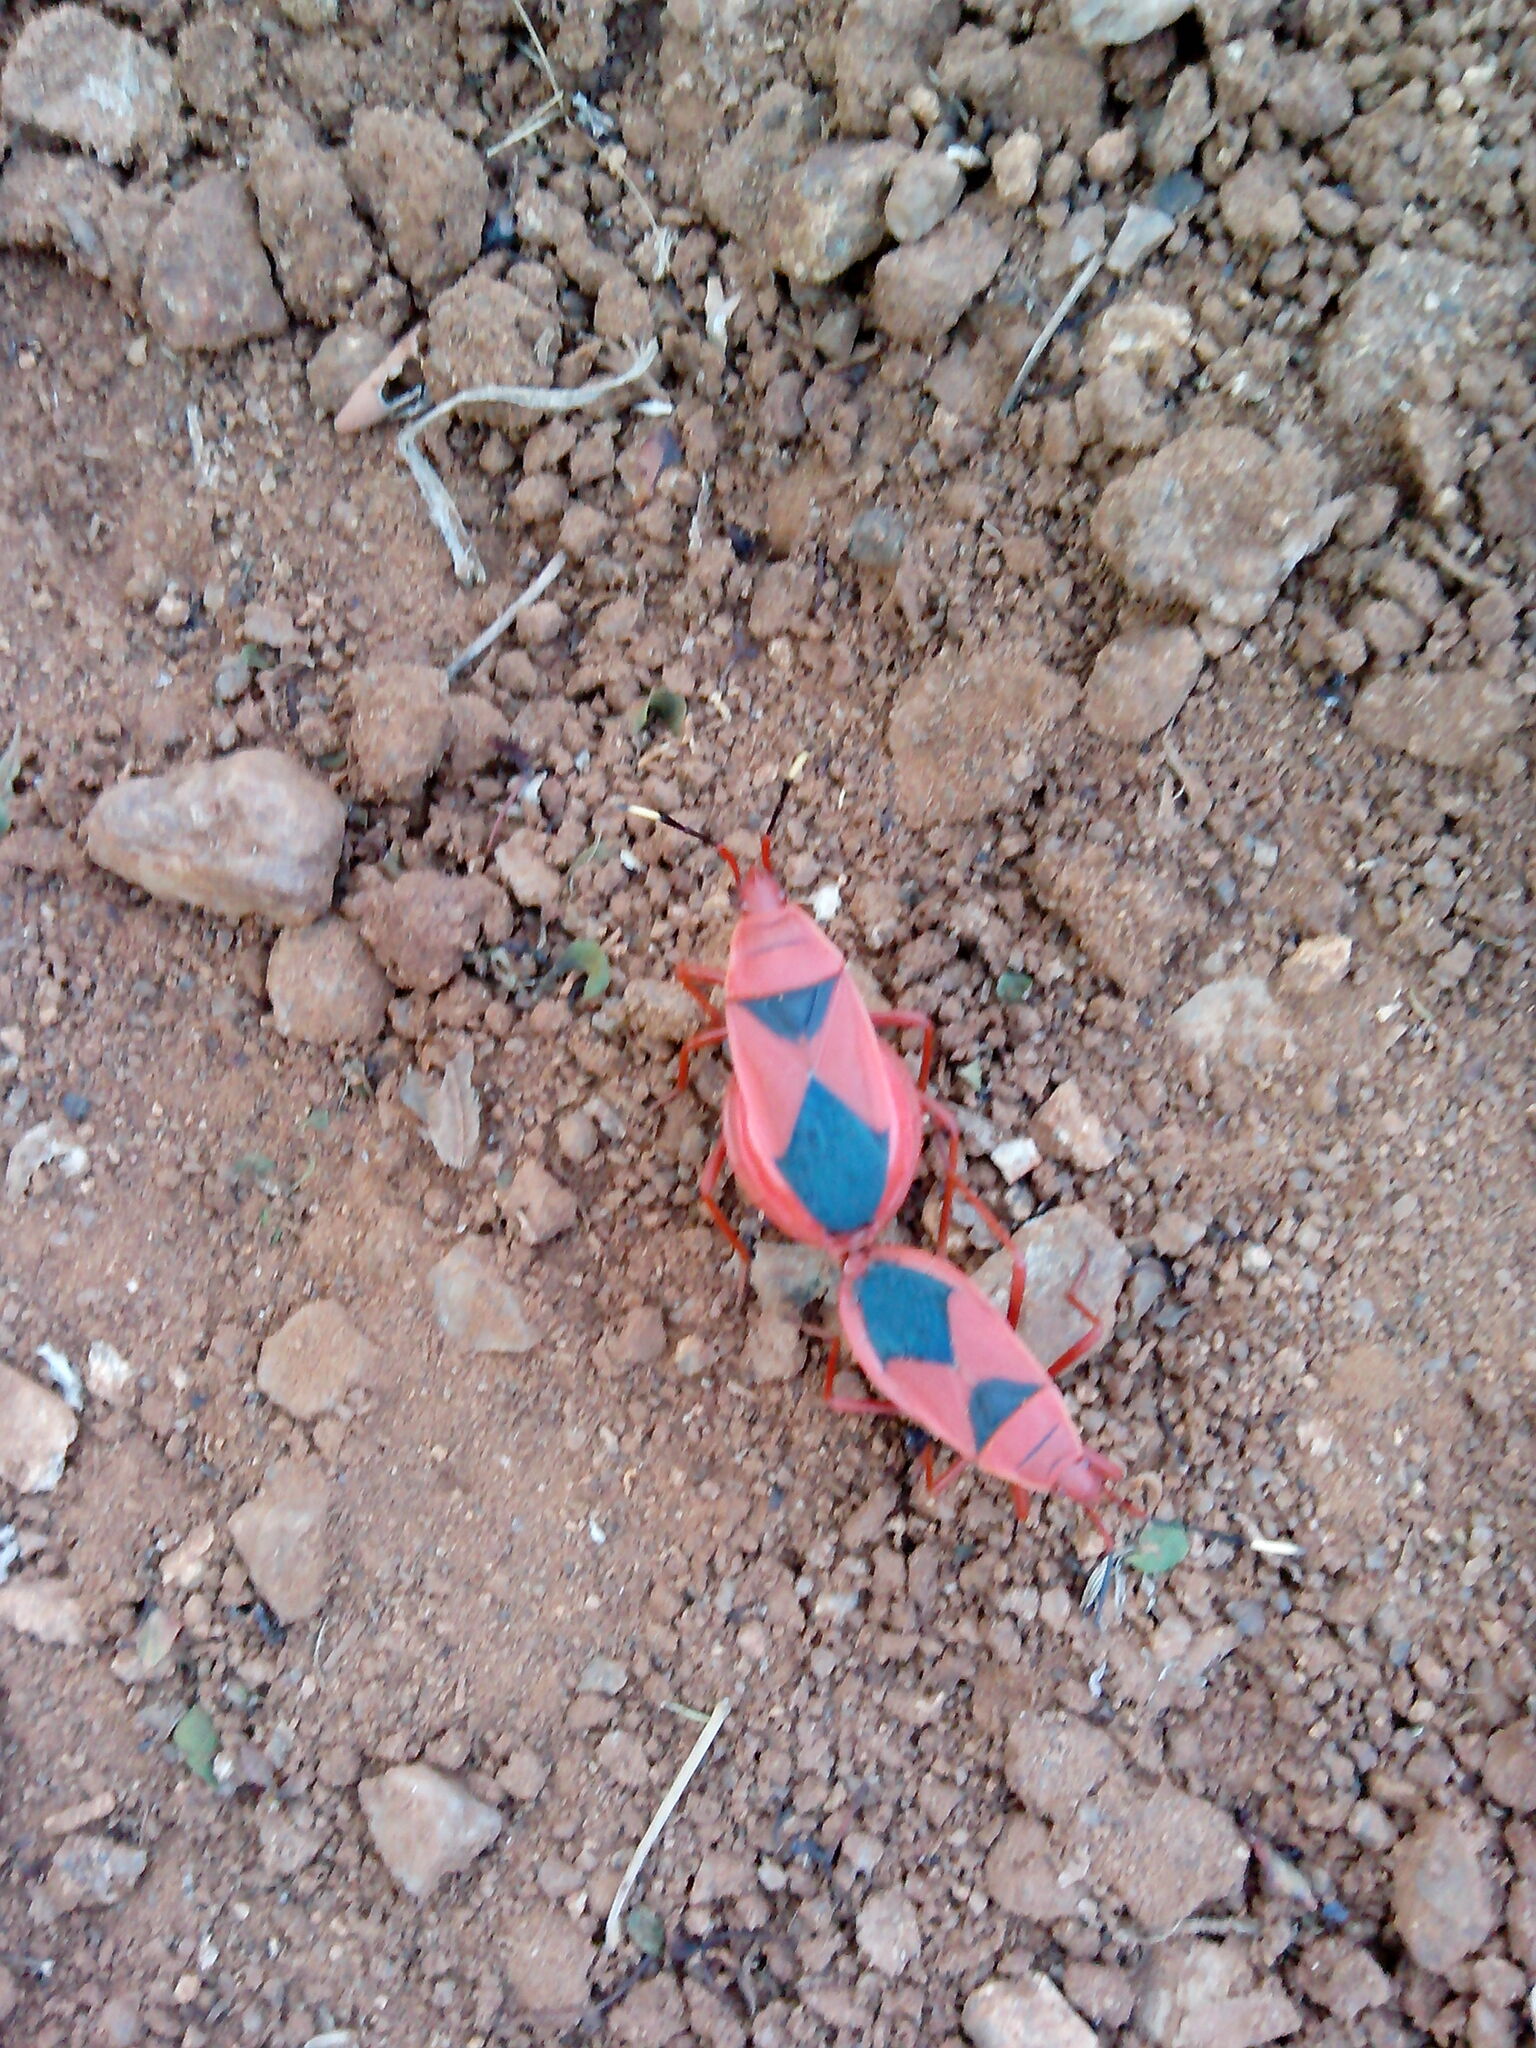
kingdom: Animalia
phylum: Arthropoda
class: Insecta
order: Hemiptera
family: Pyrrhocoridae
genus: Probergrothius
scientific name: Probergrothius
